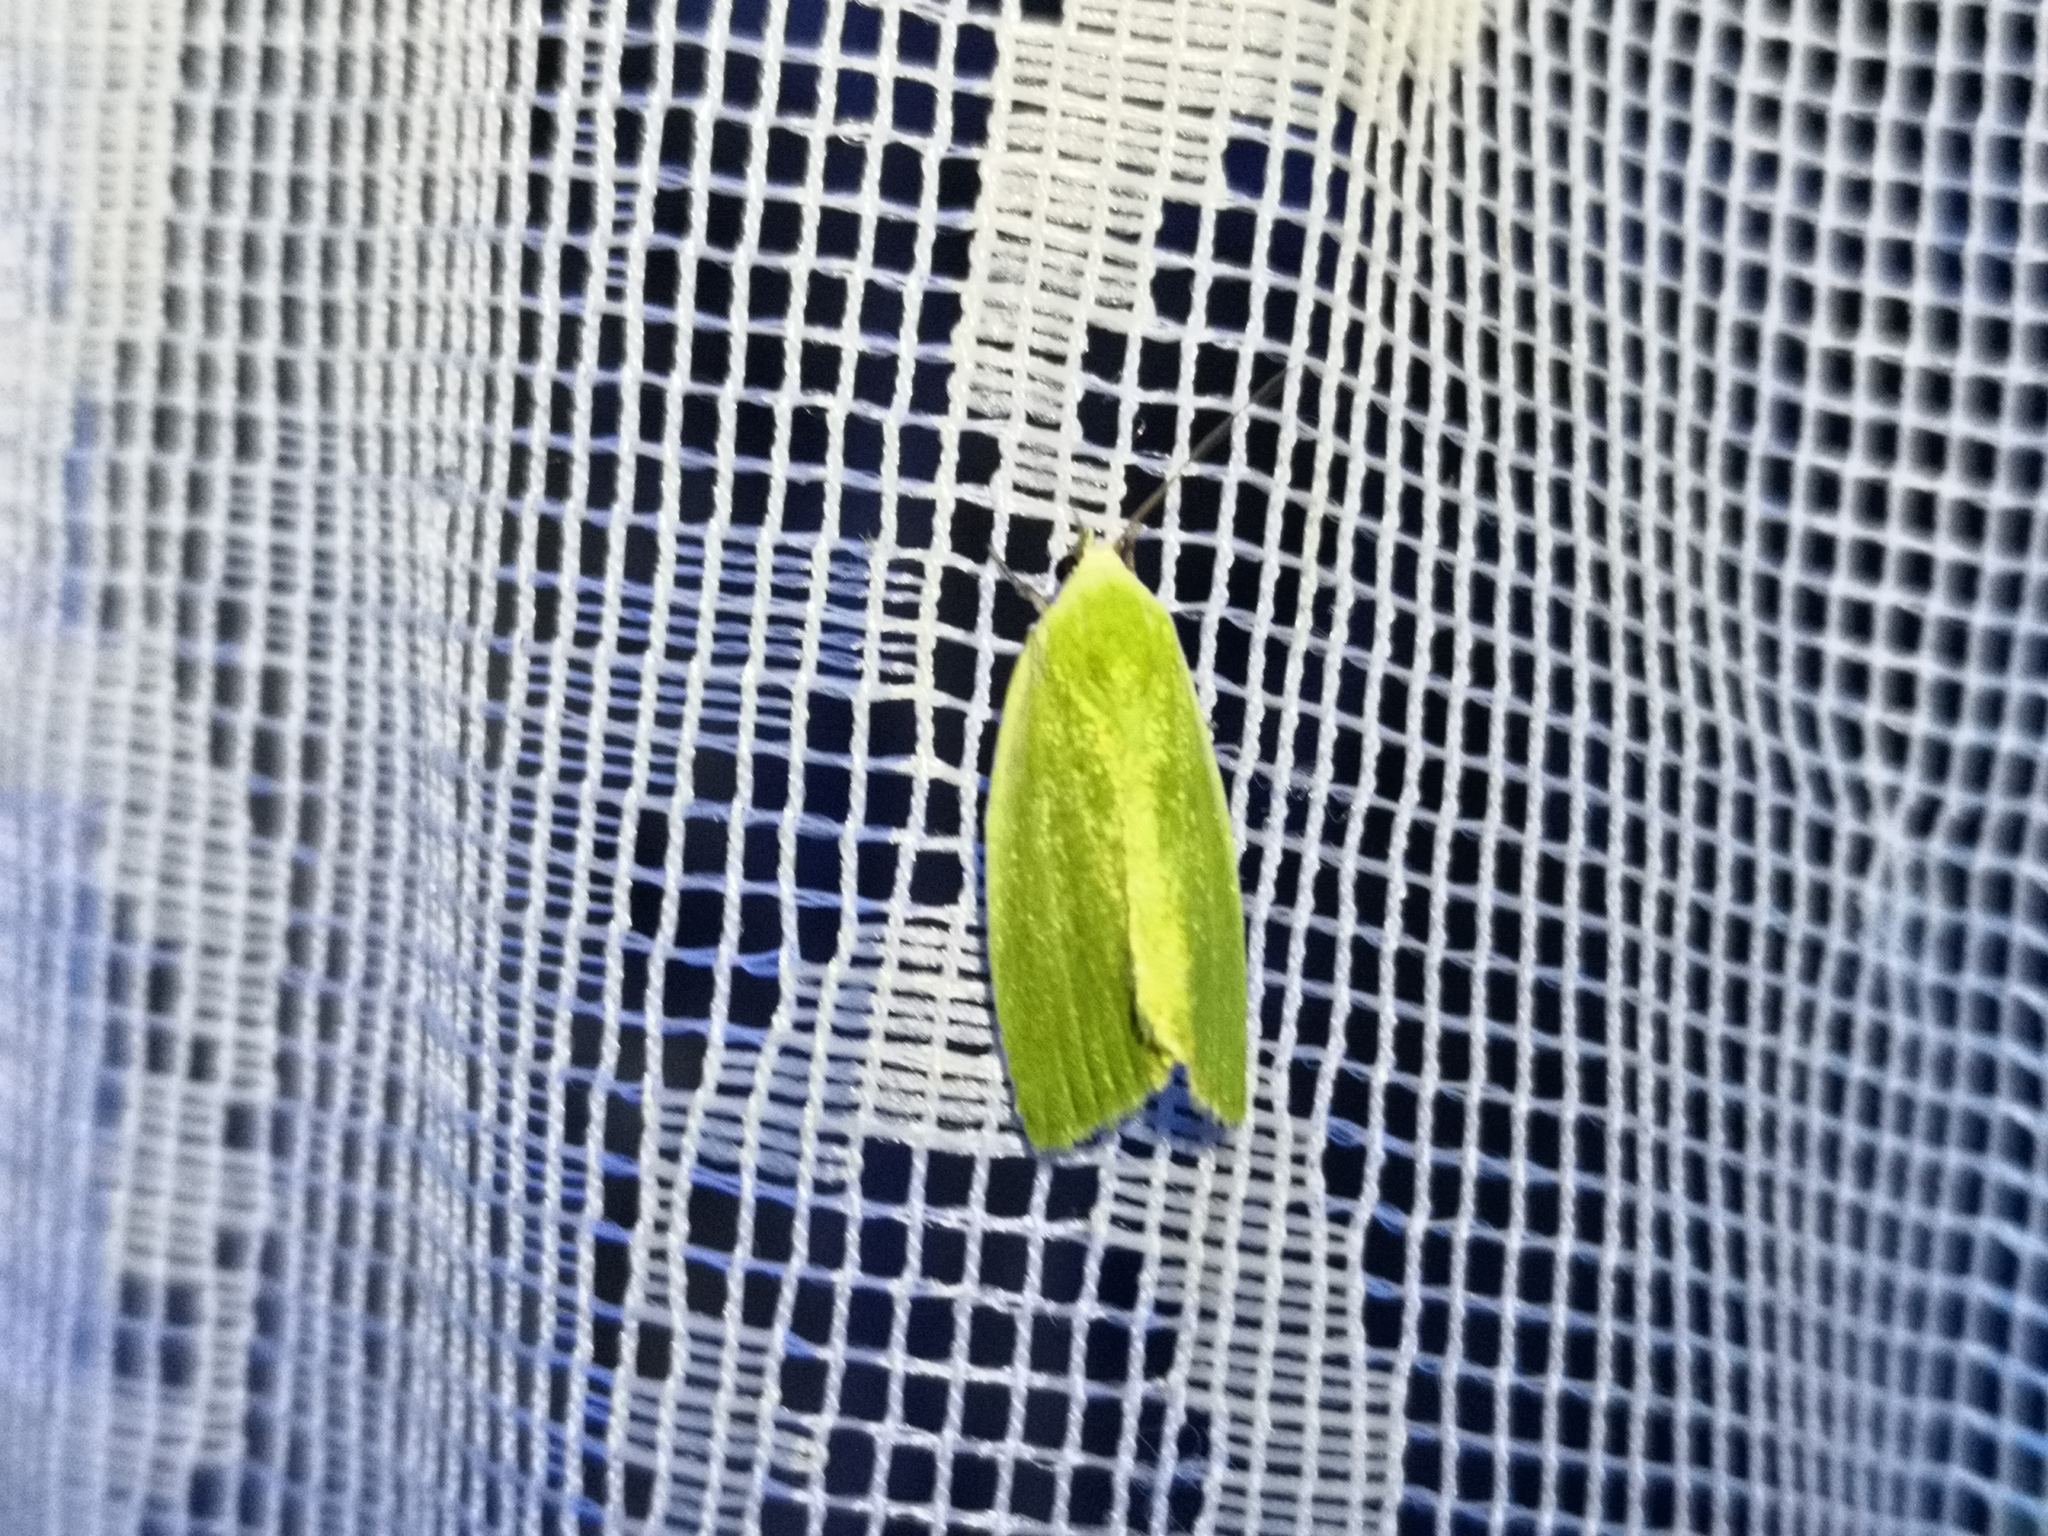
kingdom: Animalia
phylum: Arthropoda
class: Insecta
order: Lepidoptera
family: Nolidae
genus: Earias
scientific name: Earias clorana
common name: Cream-bordered green pea
